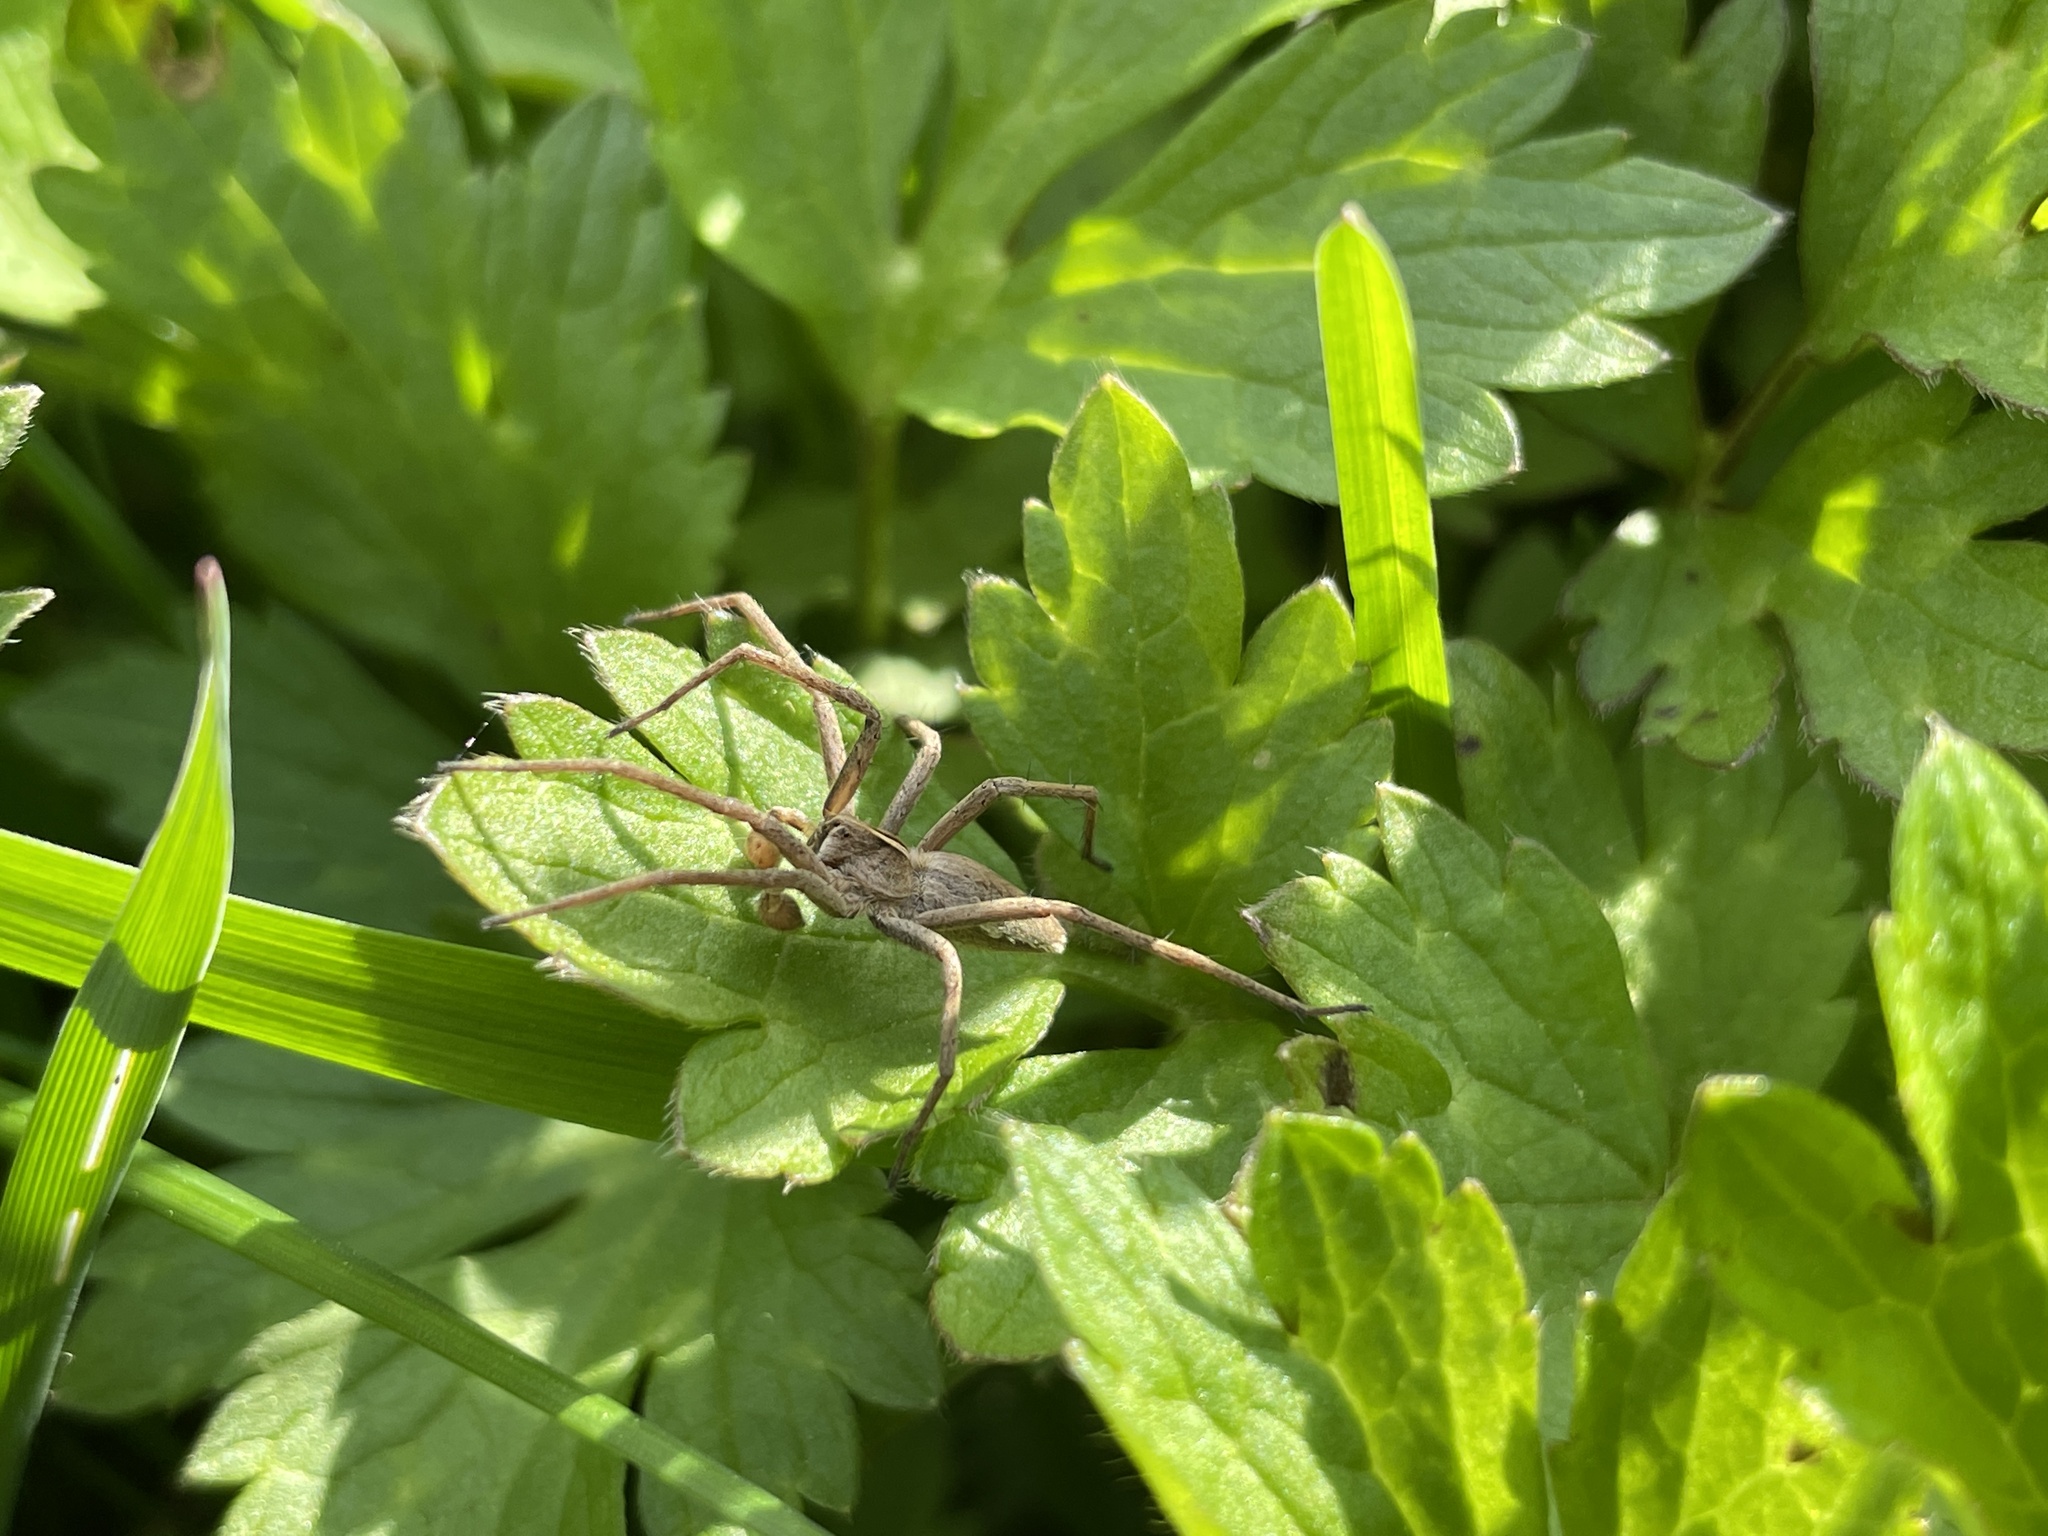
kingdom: Animalia
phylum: Arthropoda
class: Arachnida
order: Araneae
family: Pisauridae
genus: Pisaura
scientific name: Pisaura mirabilis
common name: Tent spider
